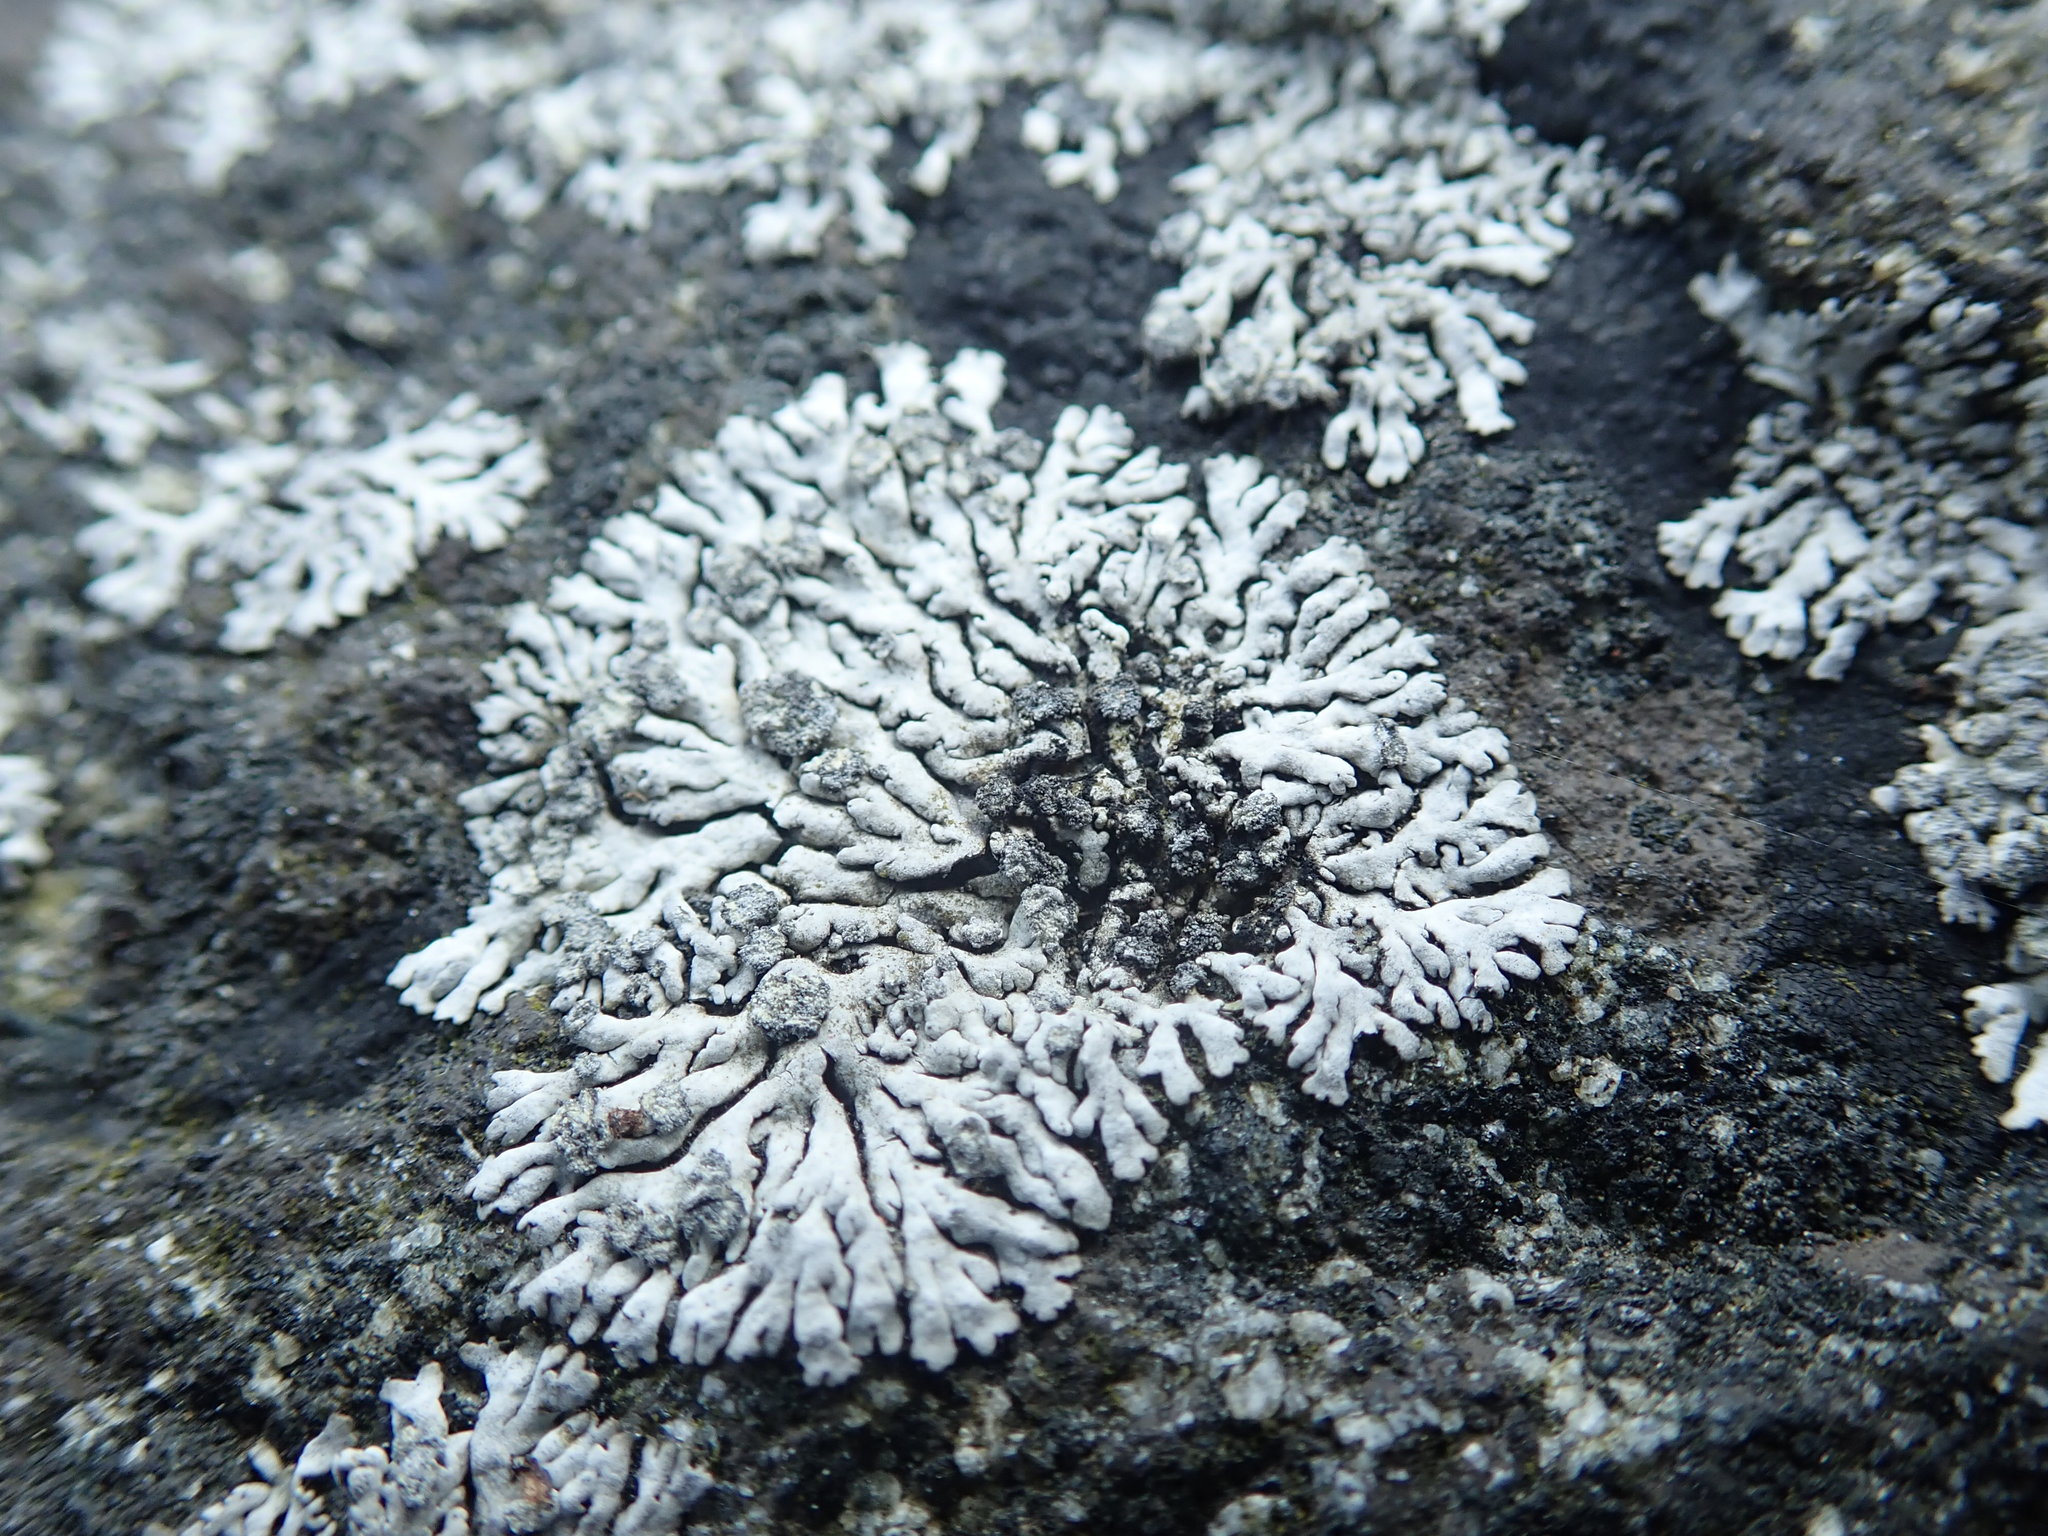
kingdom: Fungi
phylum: Ascomycota
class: Lecanoromycetes
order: Caliciales
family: Physciaceae
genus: Physcia
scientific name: Physcia caesia
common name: Blue-gray rosette lichen
